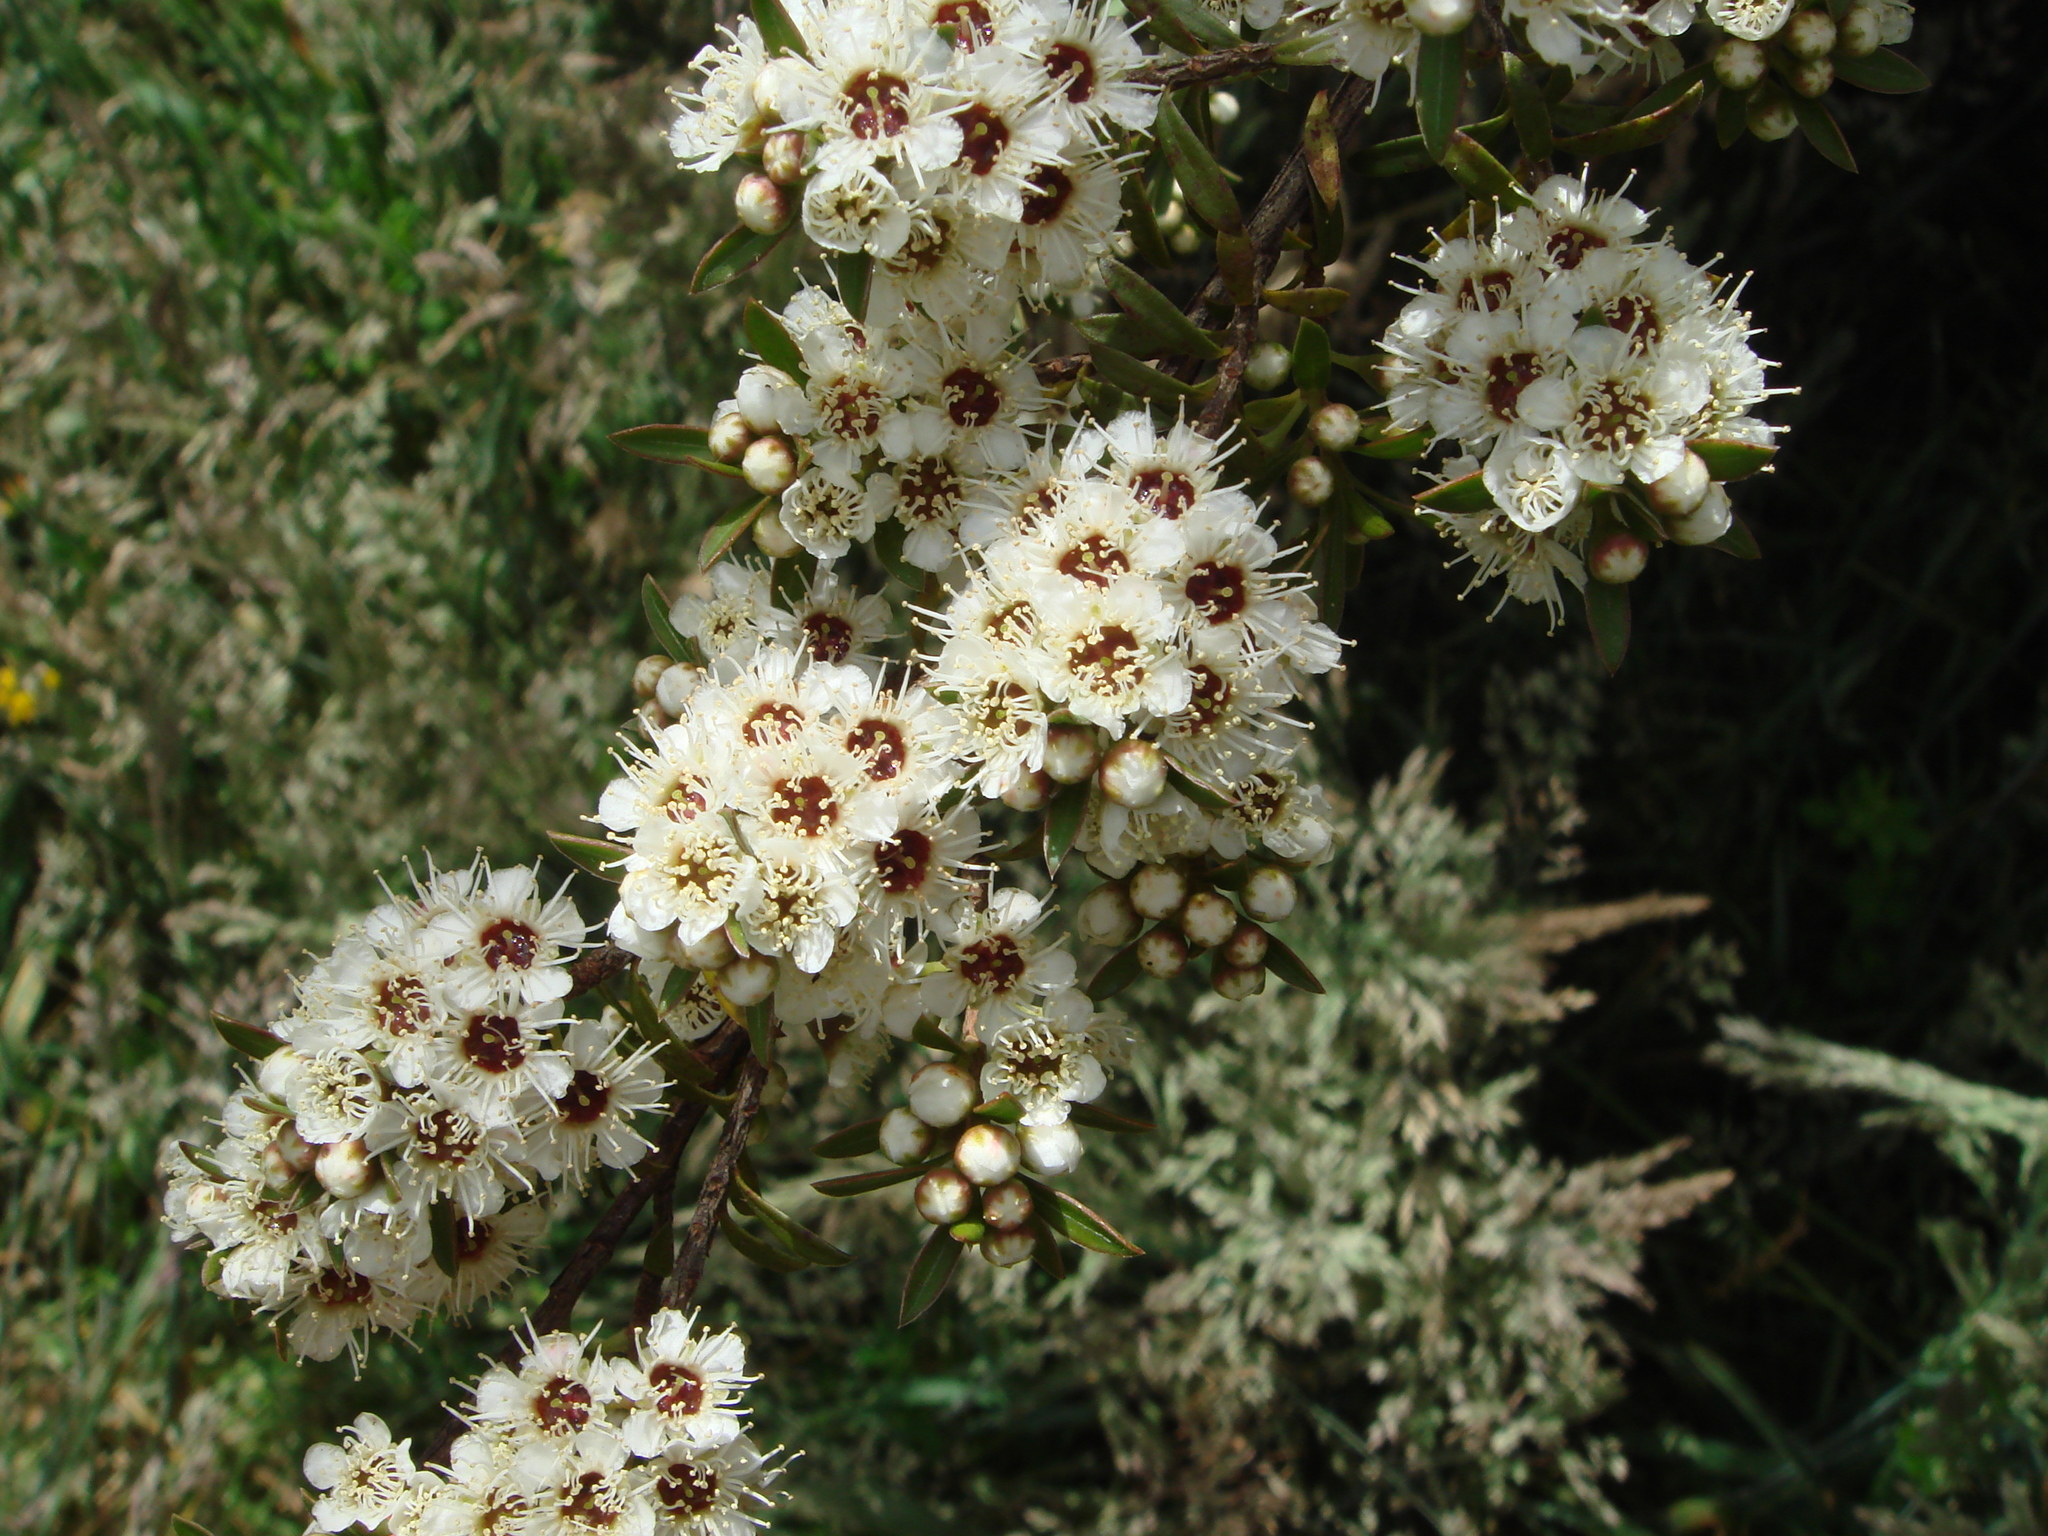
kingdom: Plantae
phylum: Tracheophyta
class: Magnoliopsida
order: Myrtales
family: Myrtaceae
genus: Kunzea
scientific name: Kunzea robusta
